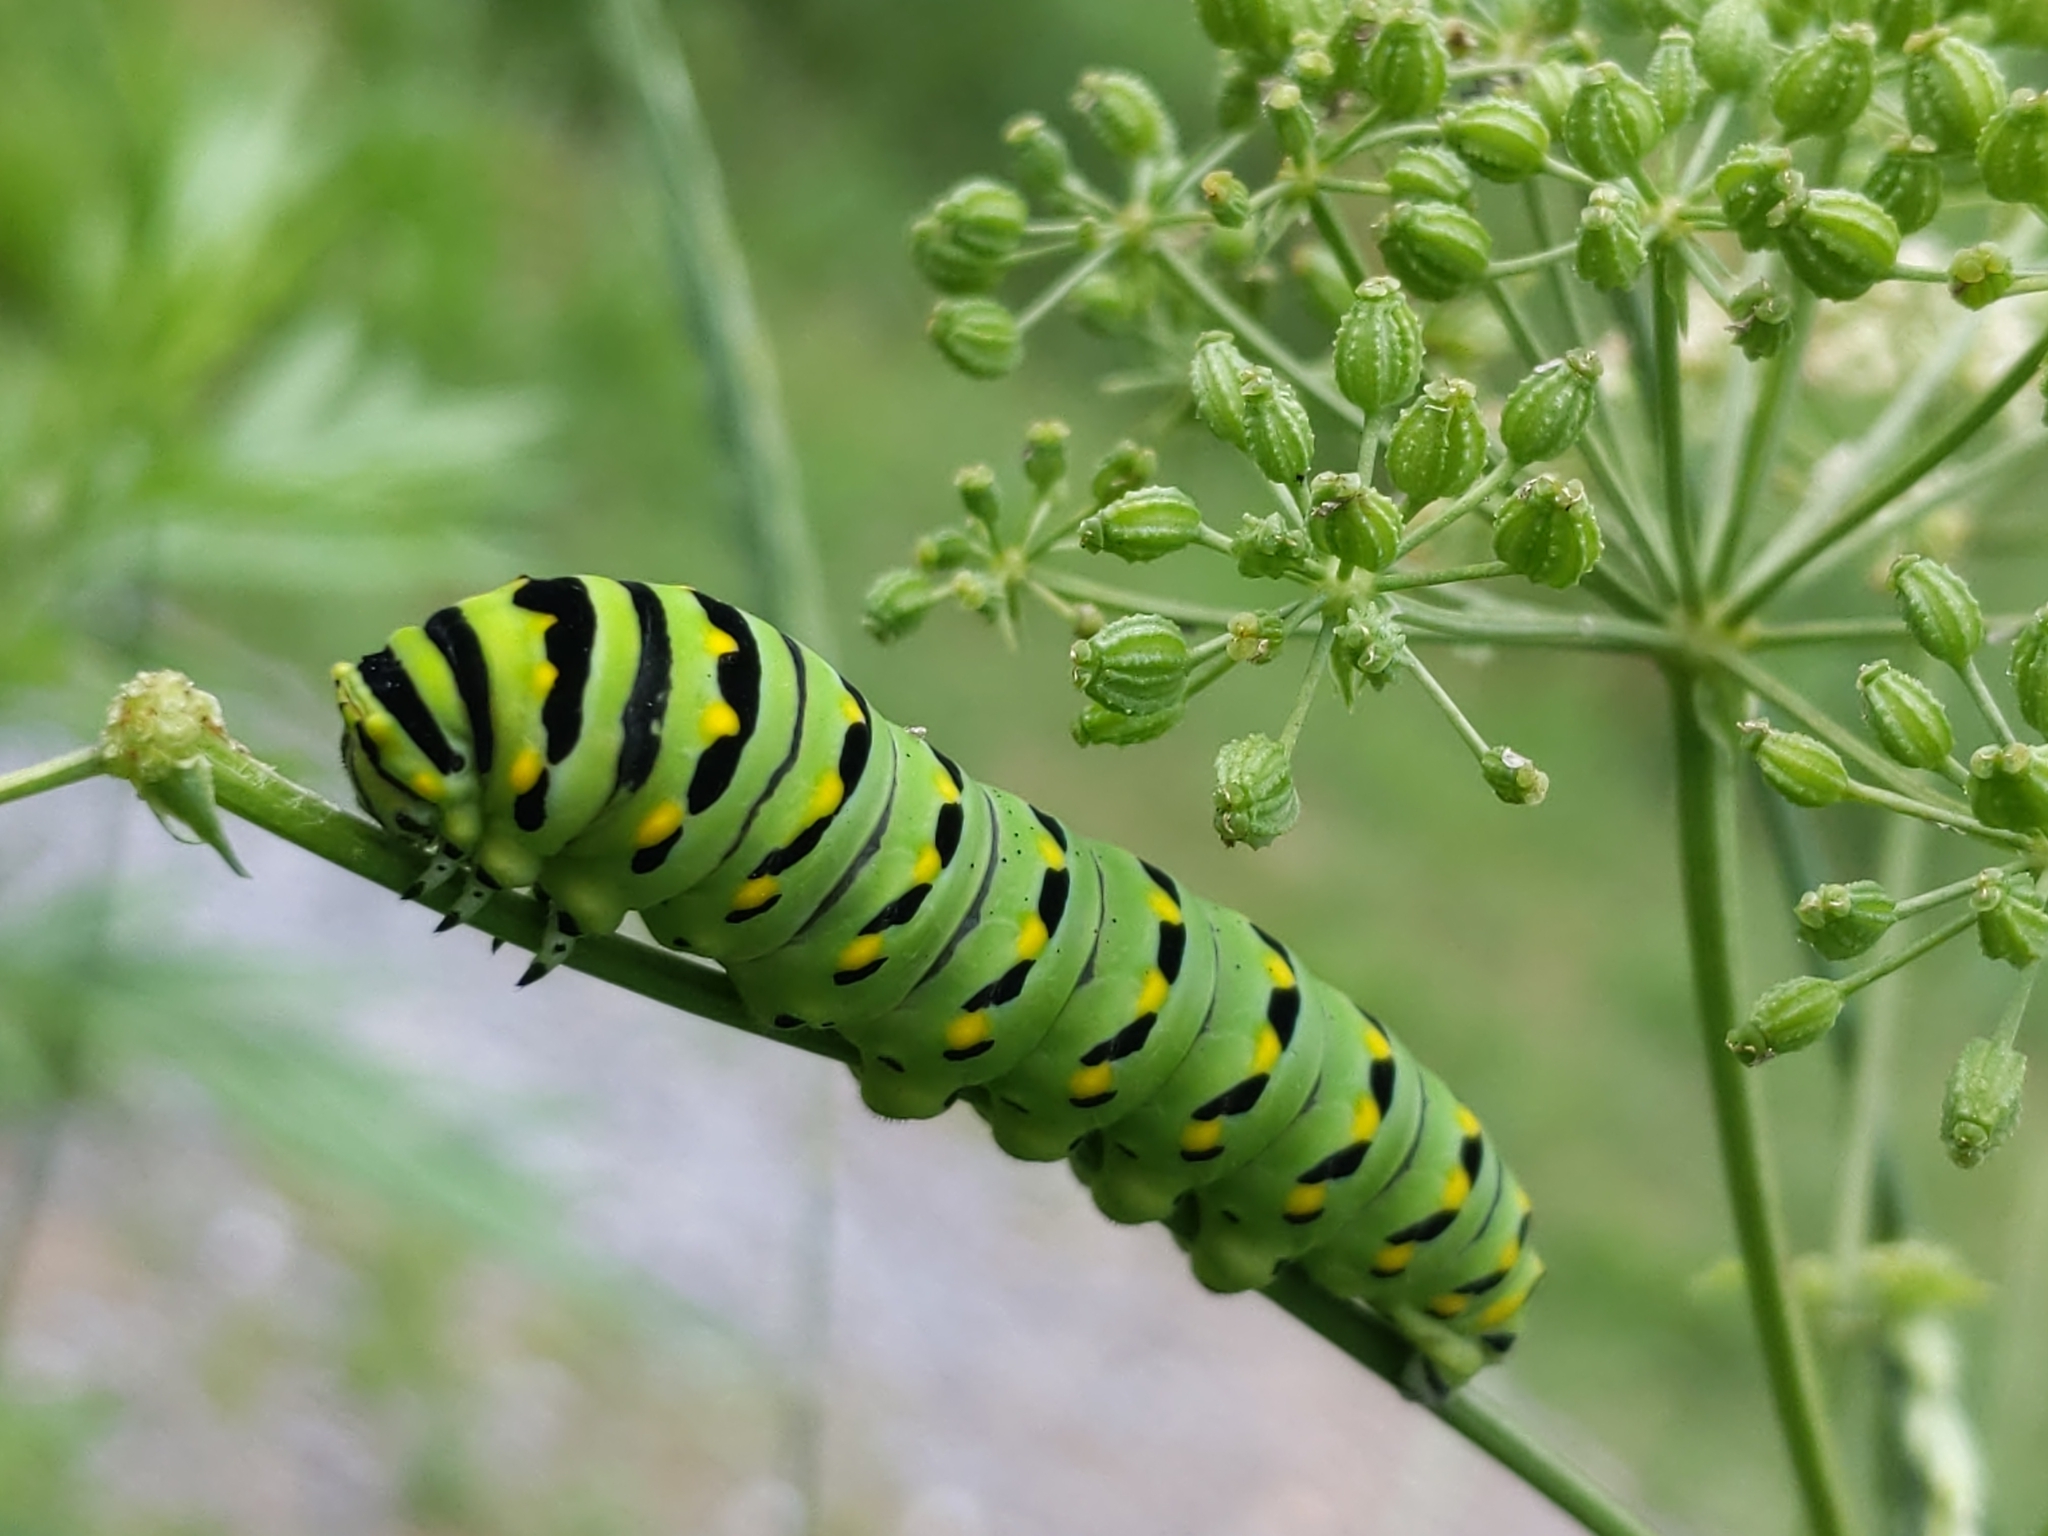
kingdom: Animalia
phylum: Arthropoda
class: Insecta
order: Lepidoptera
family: Papilionidae
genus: Papilio
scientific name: Papilio polyxenes
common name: Black swallowtail
